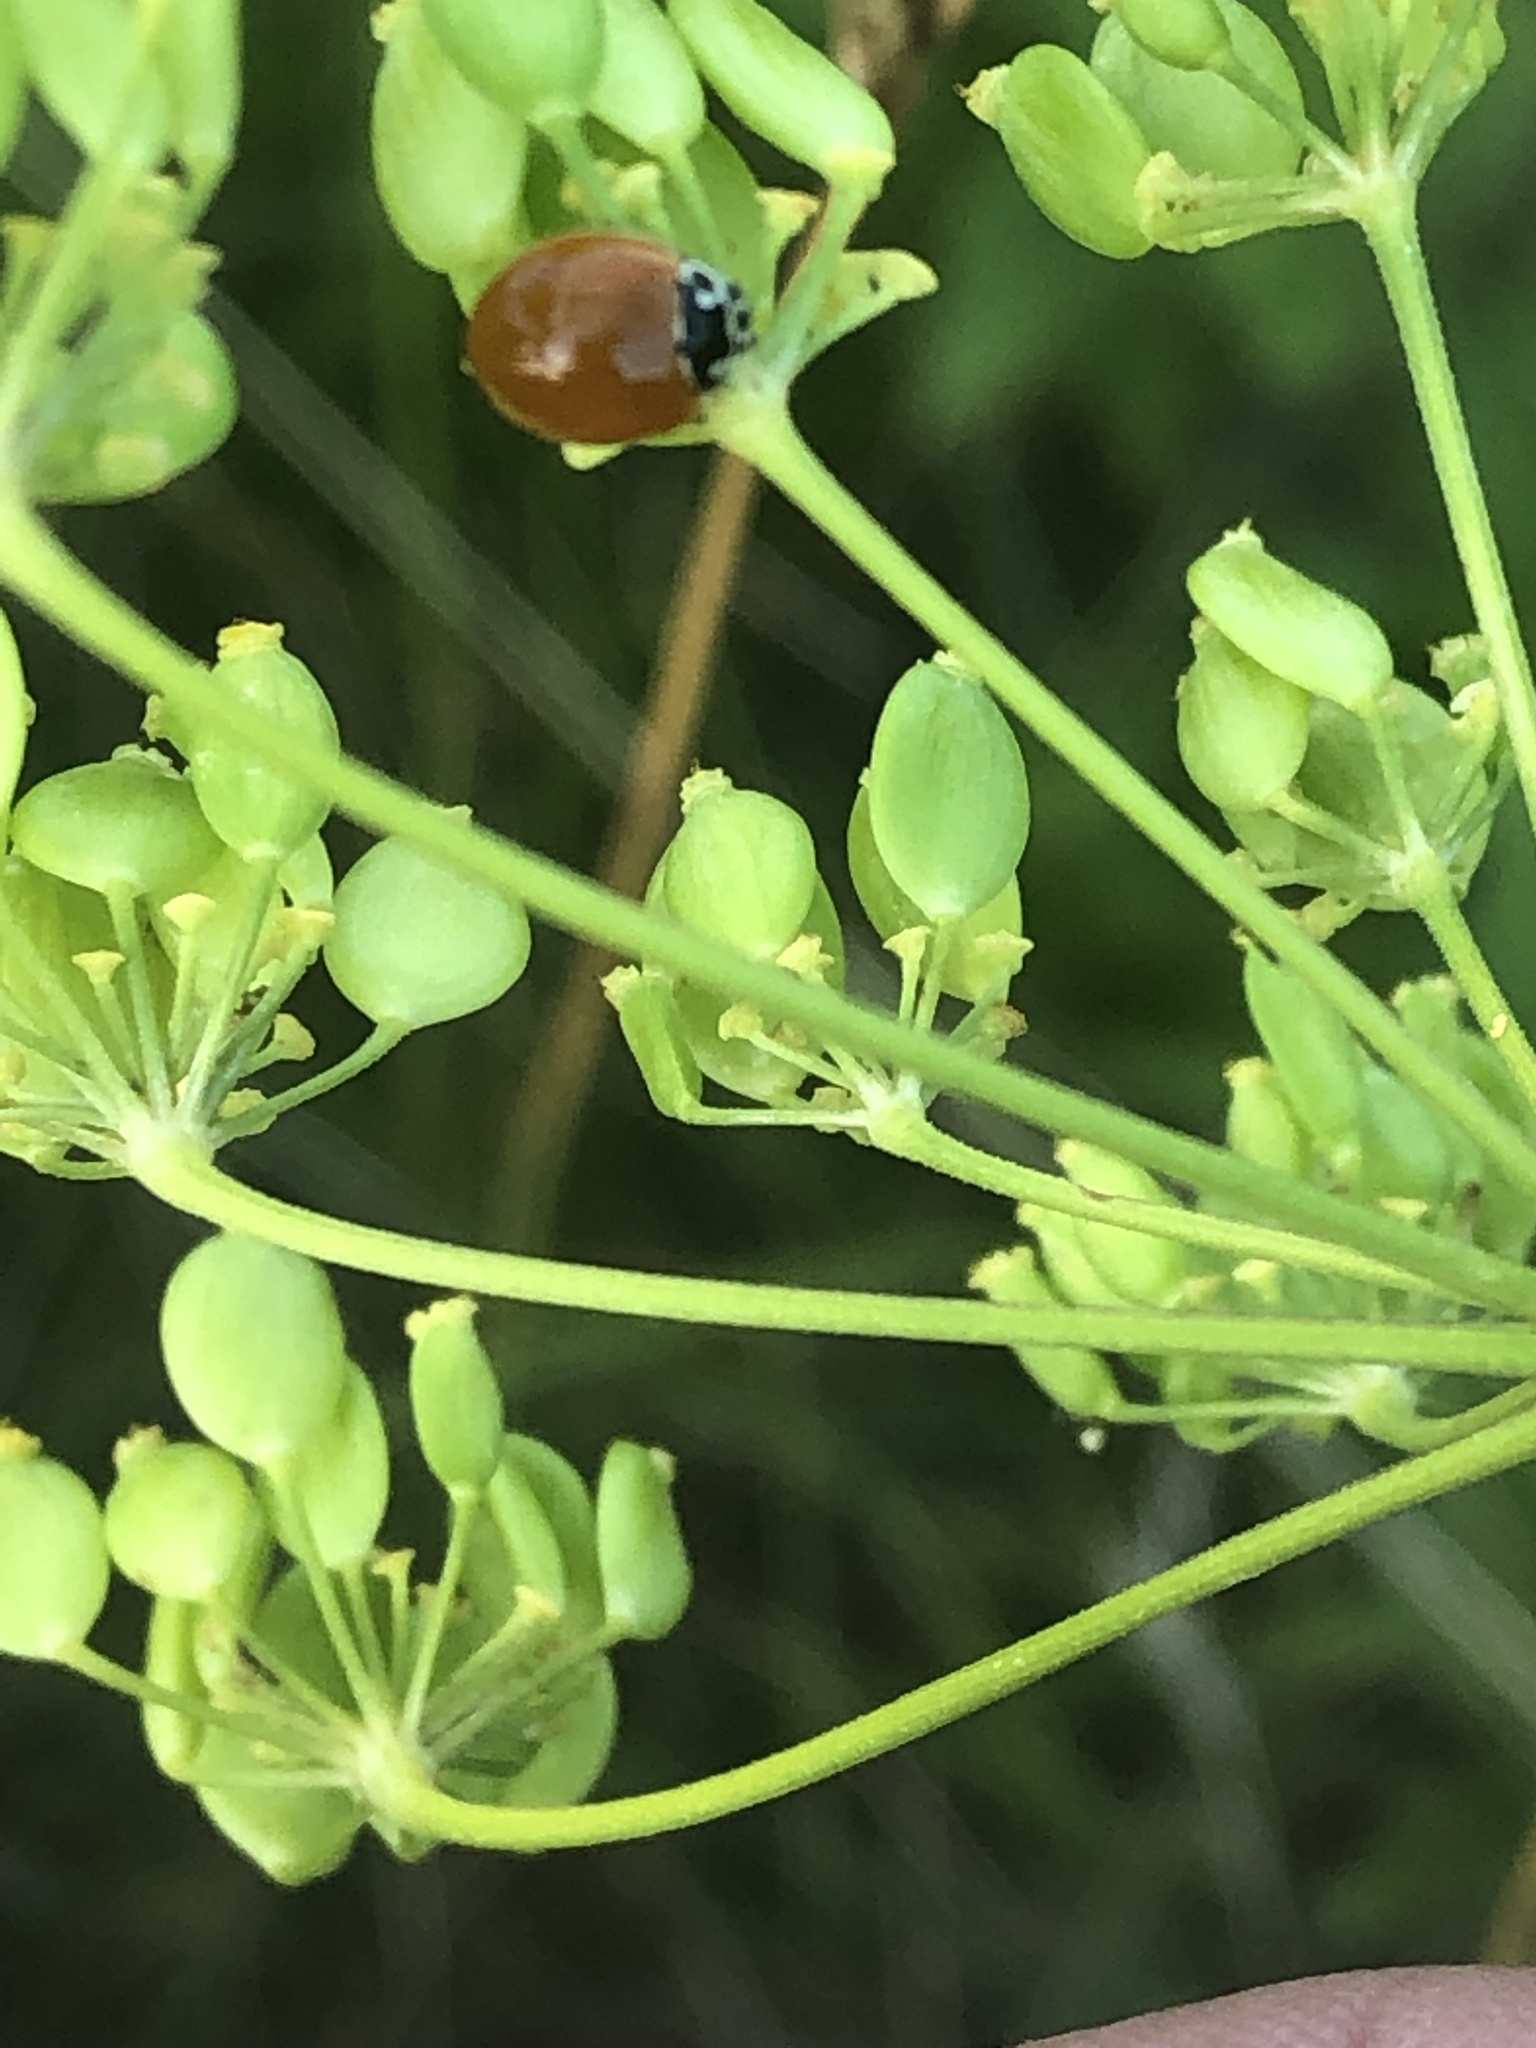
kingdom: Animalia
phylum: Arthropoda
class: Insecta
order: Coleoptera
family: Coccinellidae
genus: Cycloneda
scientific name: Cycloneda munda
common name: Polished lady beetle
